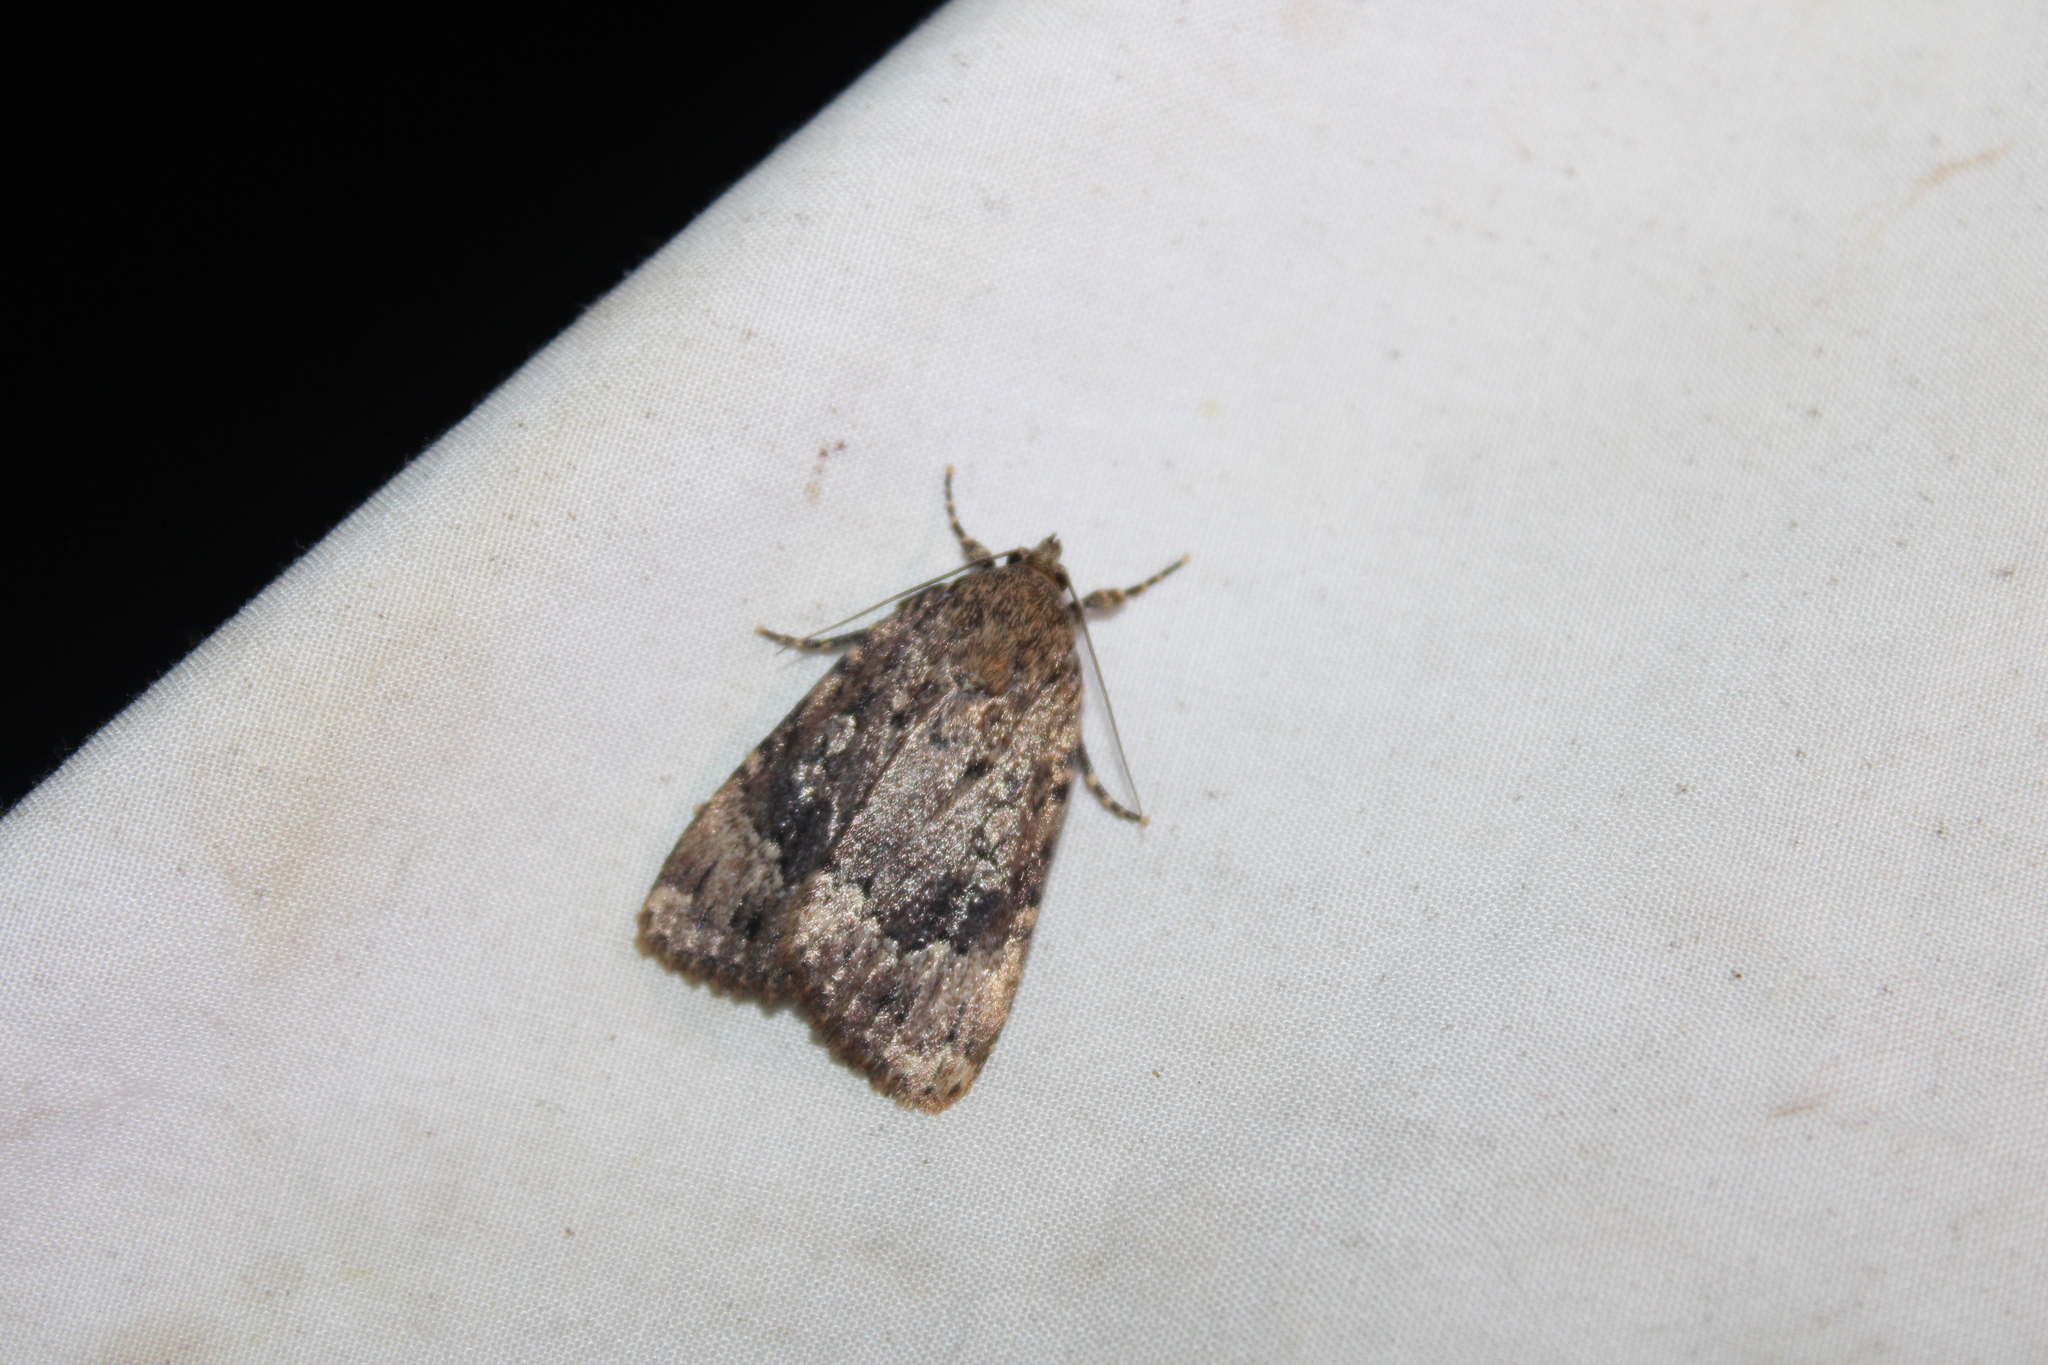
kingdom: Animalia
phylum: Arthropoda
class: Insecta
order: Lepidoptera
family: Noctuidae
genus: Amphipyra
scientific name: Amphipyra pyramidoides
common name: American copper underwing
